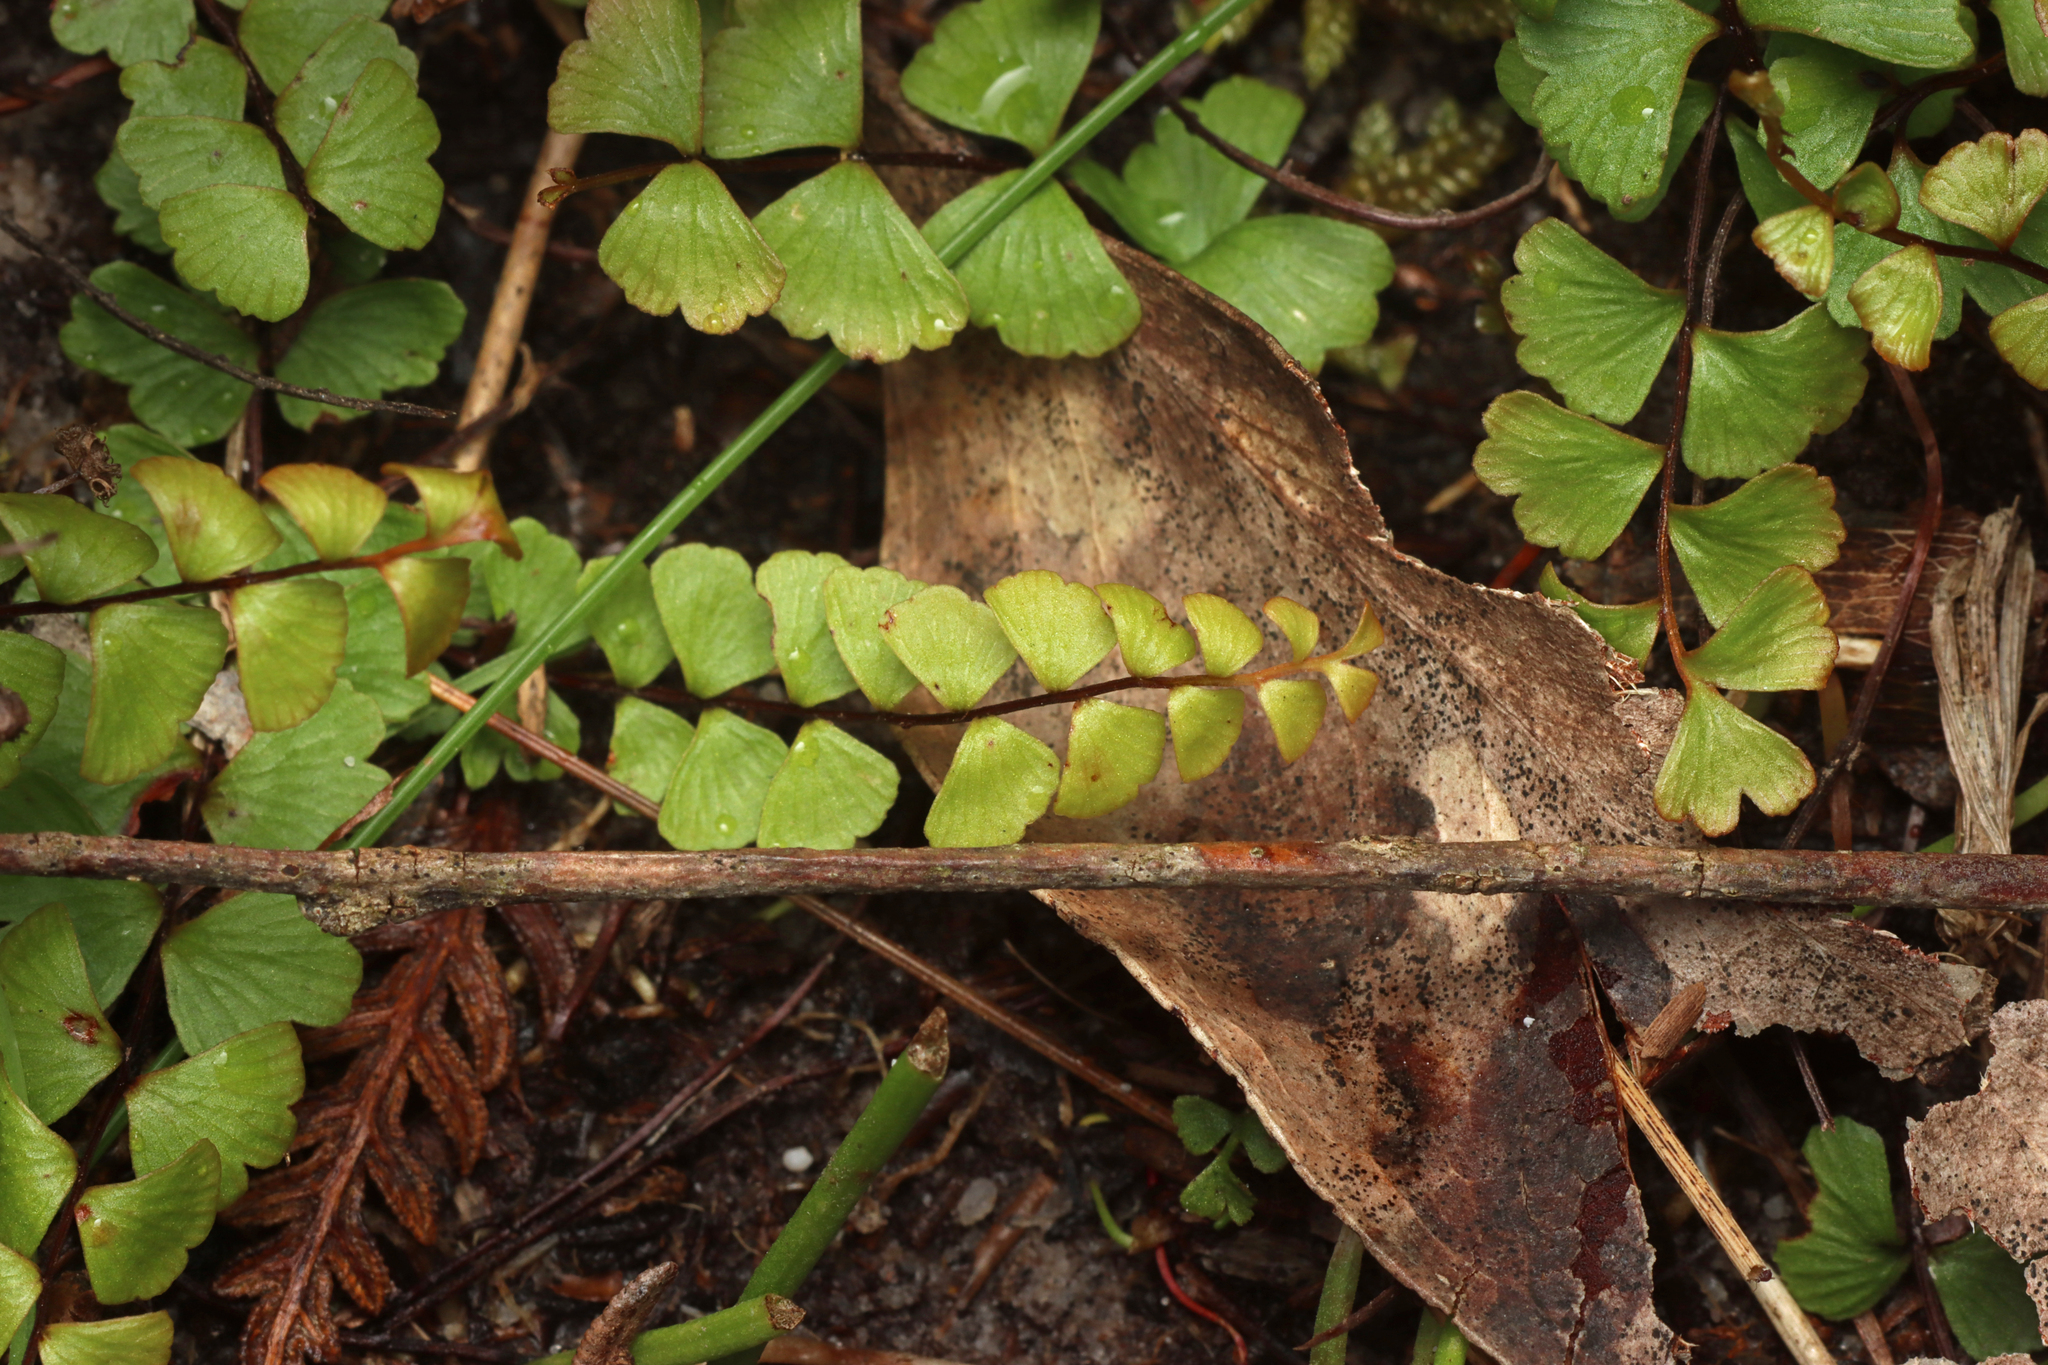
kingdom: Plantae
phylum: Tracheophyta
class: Polypodiopsida
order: Polypodiales
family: Lindsaeaceae
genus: Lindsaea
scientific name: Lindsaea linearis
